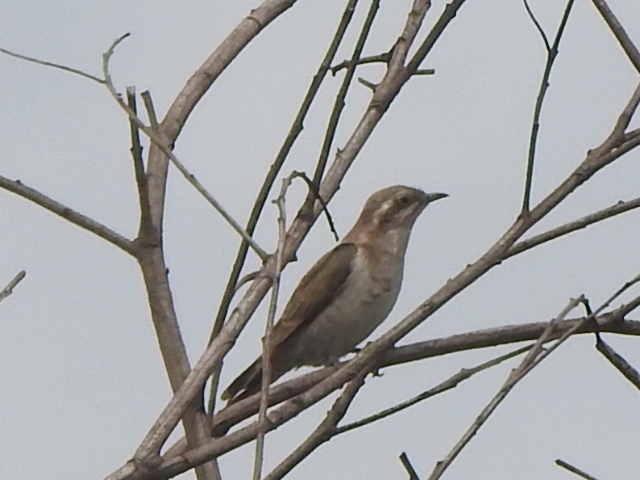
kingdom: Animalia
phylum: Chordata
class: Aves
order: Cuculiformes
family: Cuculidae
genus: Chrysococcyx
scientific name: Chrysococcyx basalis
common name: Horsfield's bronze cuckoo
